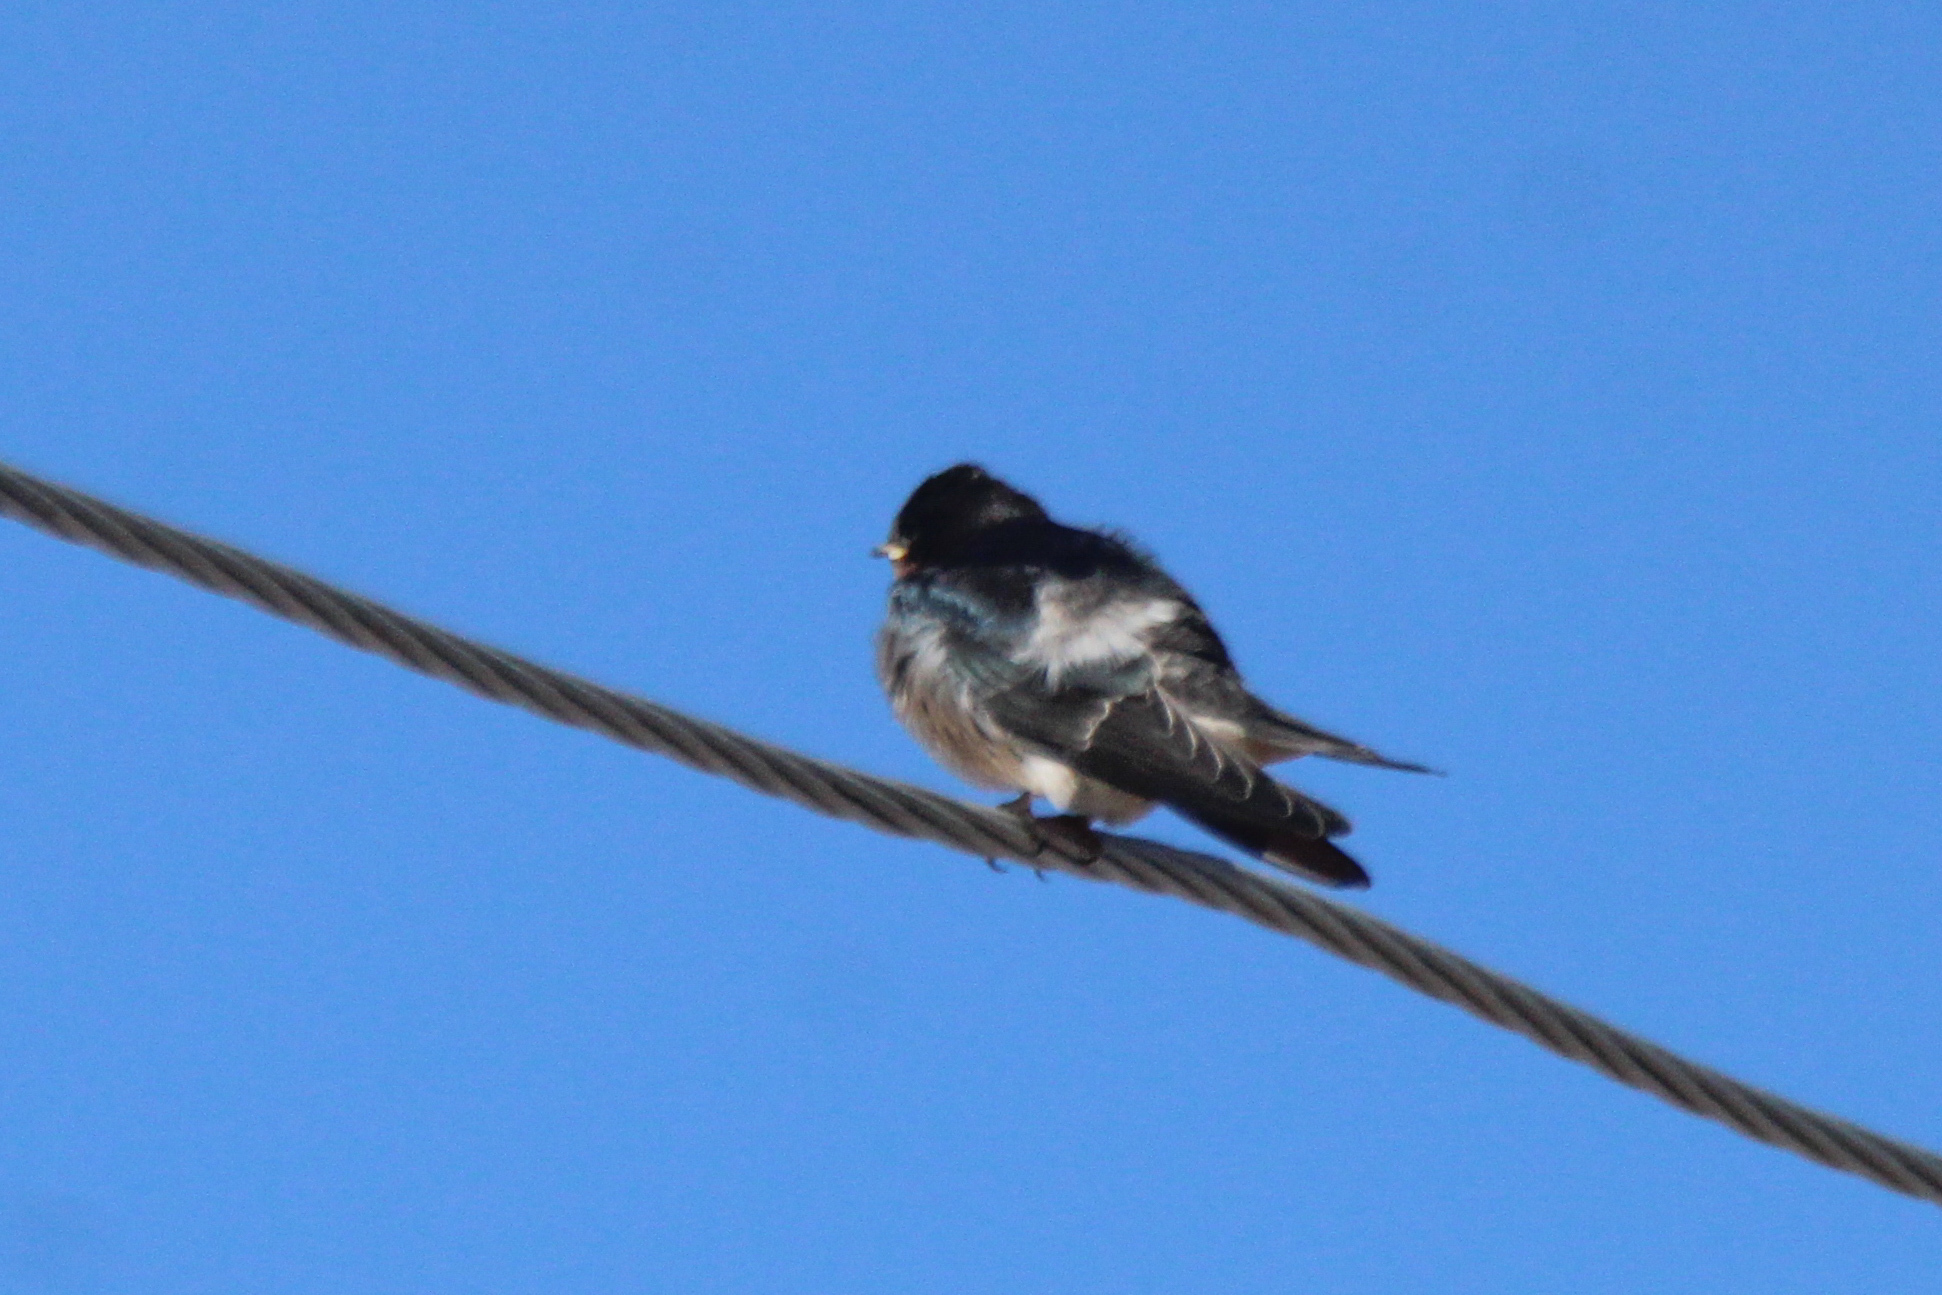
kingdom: Animalia
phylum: Chordata
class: Aves
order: Passeriformes
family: Hirundinidae
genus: Hirundo
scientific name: Hirundo rustica
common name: Barn swallow
